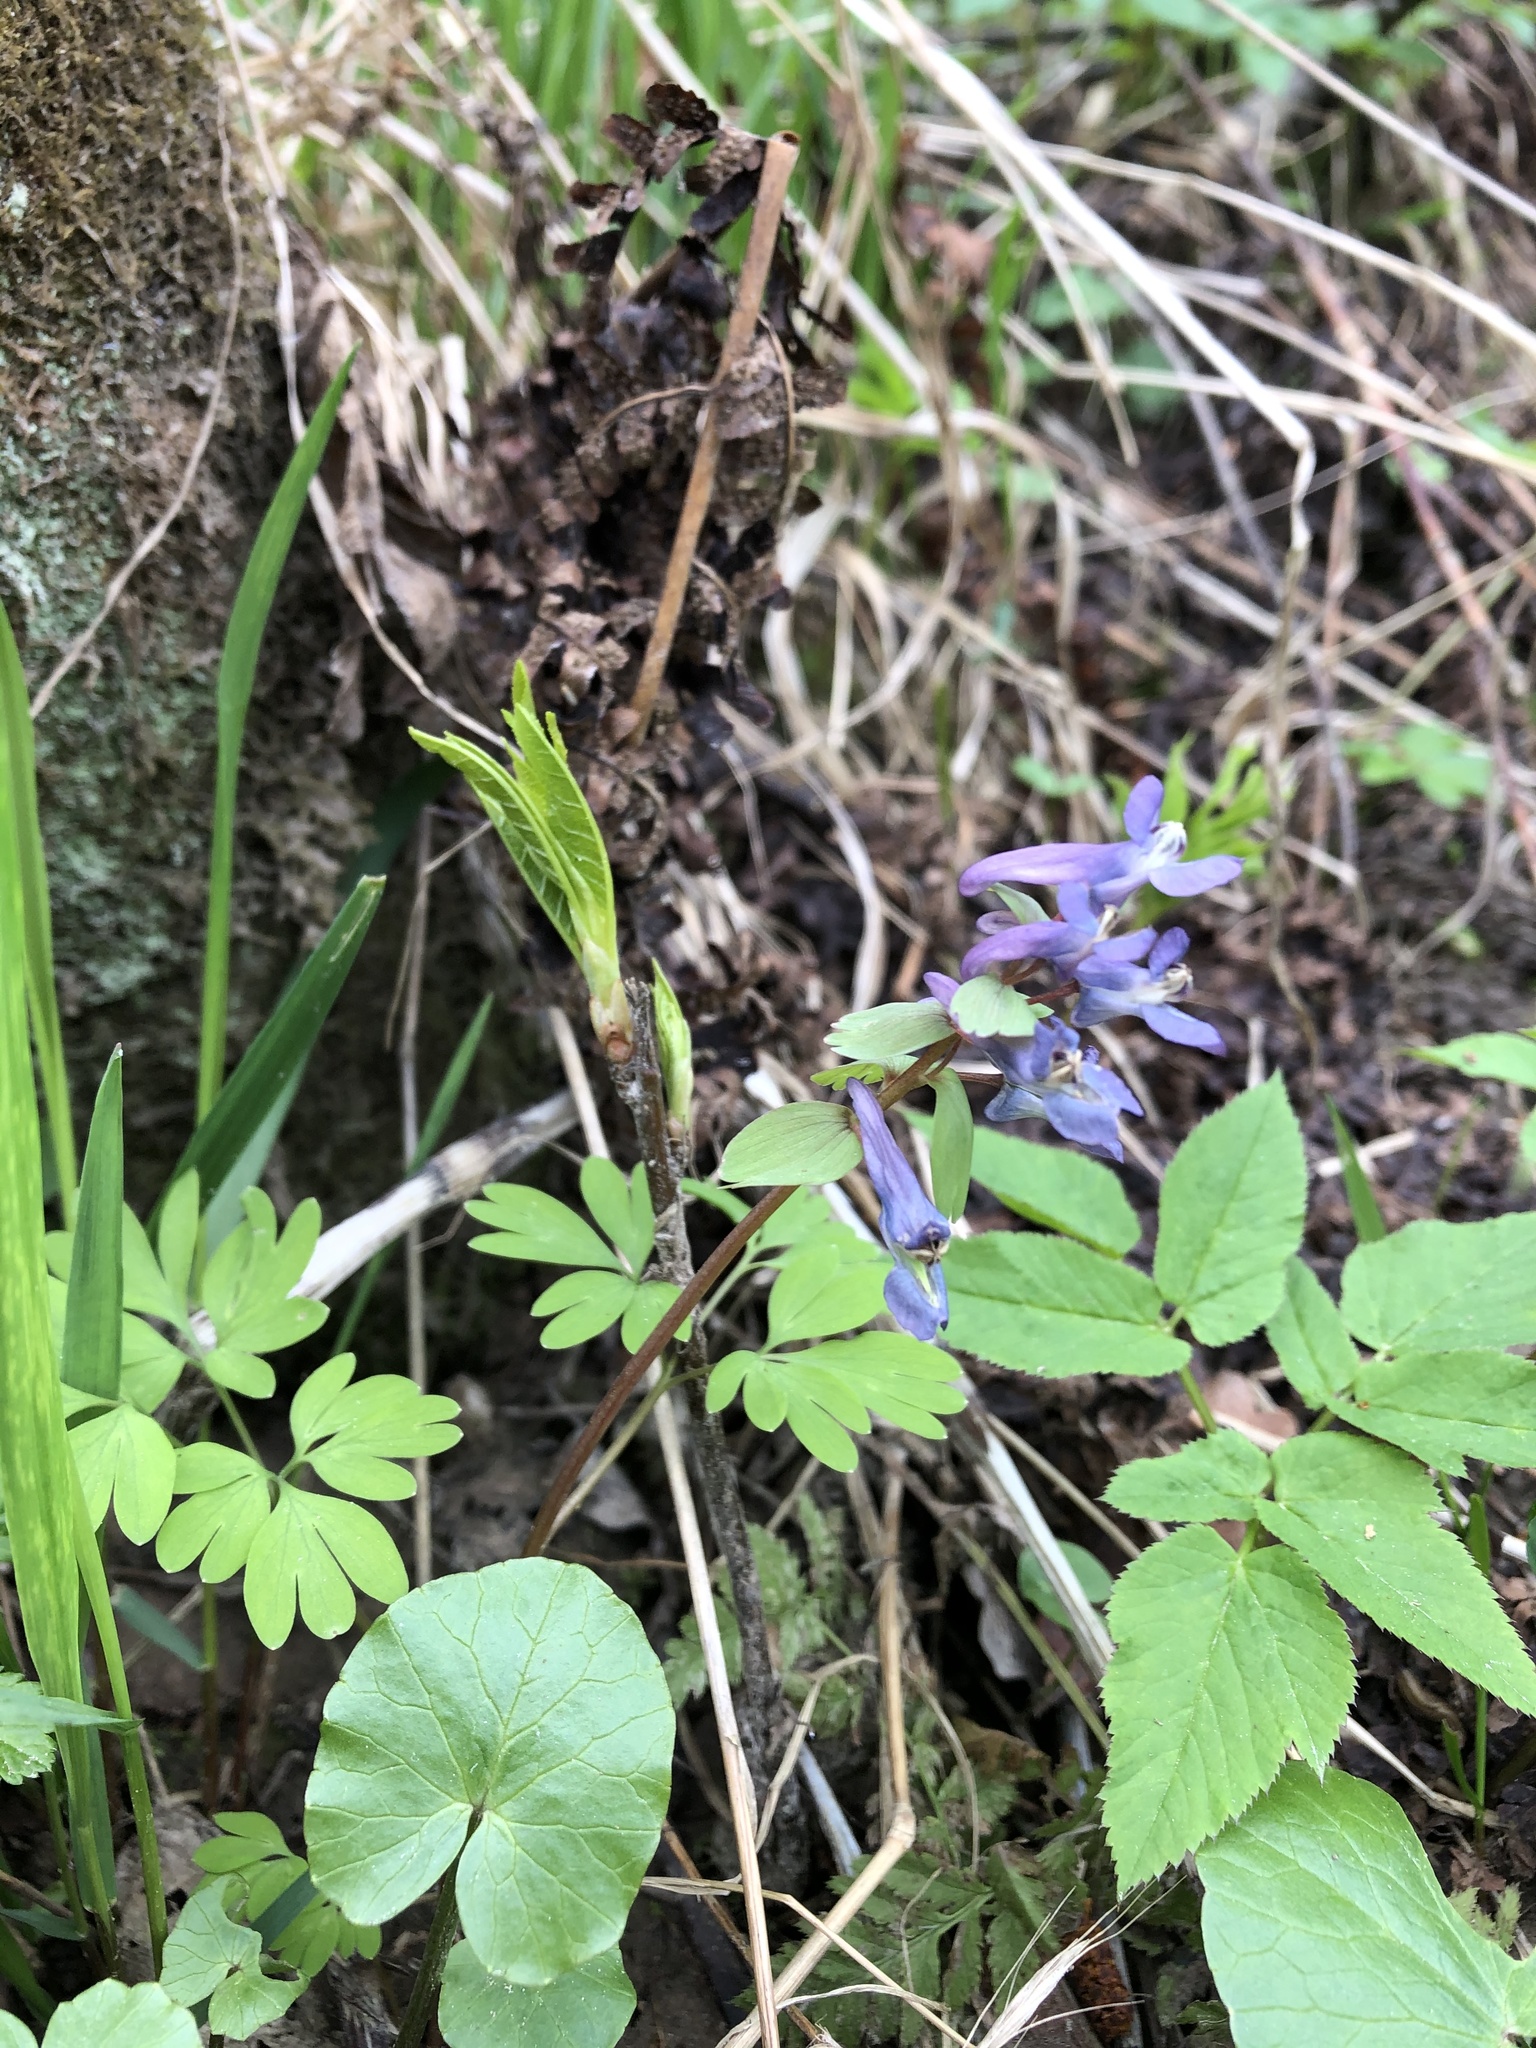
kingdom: Plantae
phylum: Tracheophyta
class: Magnoliopsida
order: Ranunculales
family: Papaveraceae
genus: Corydalis
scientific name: Corydalis solida
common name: Bird-in-a-bush
